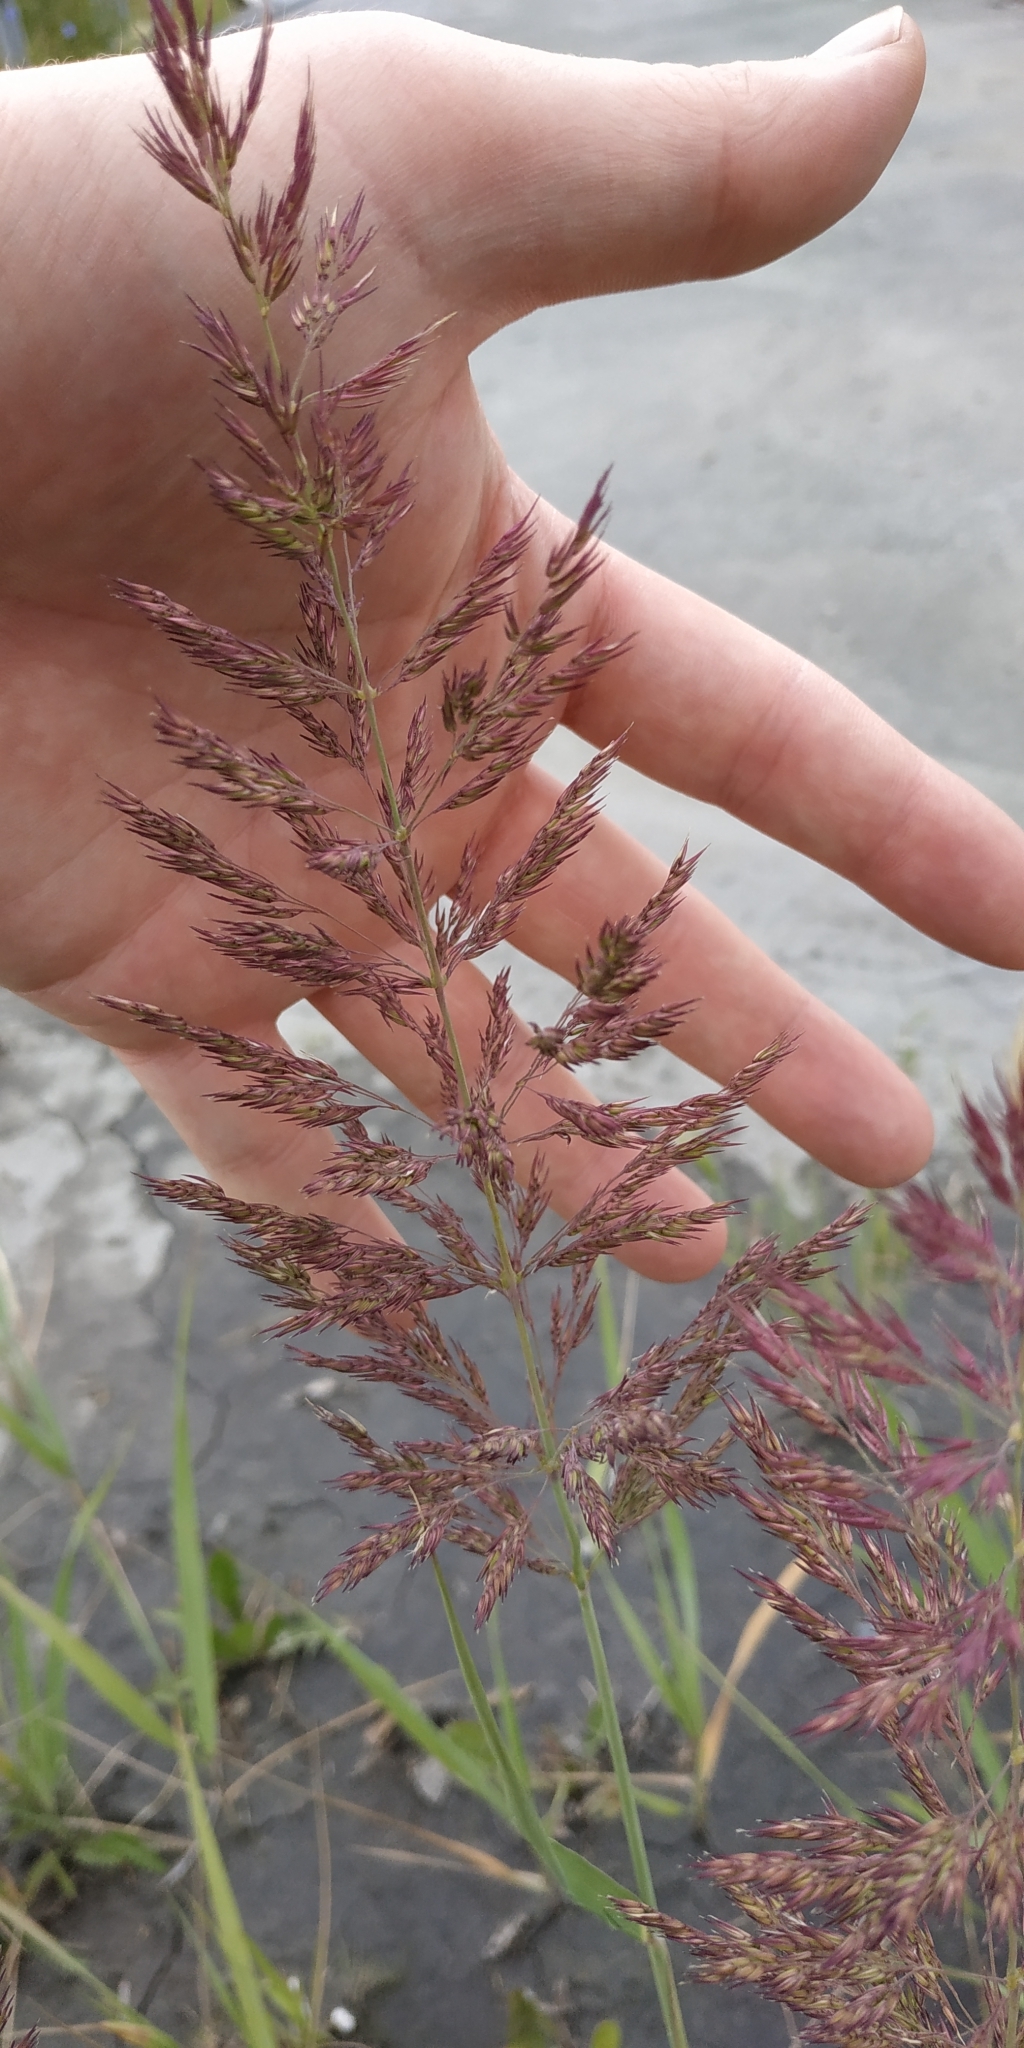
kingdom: Plantae
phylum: Tracheophyta
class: Liliopsida
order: Poales
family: Poaceae
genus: Calamagrostis
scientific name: Calamagrostis epigejos
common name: Wood small-reed
